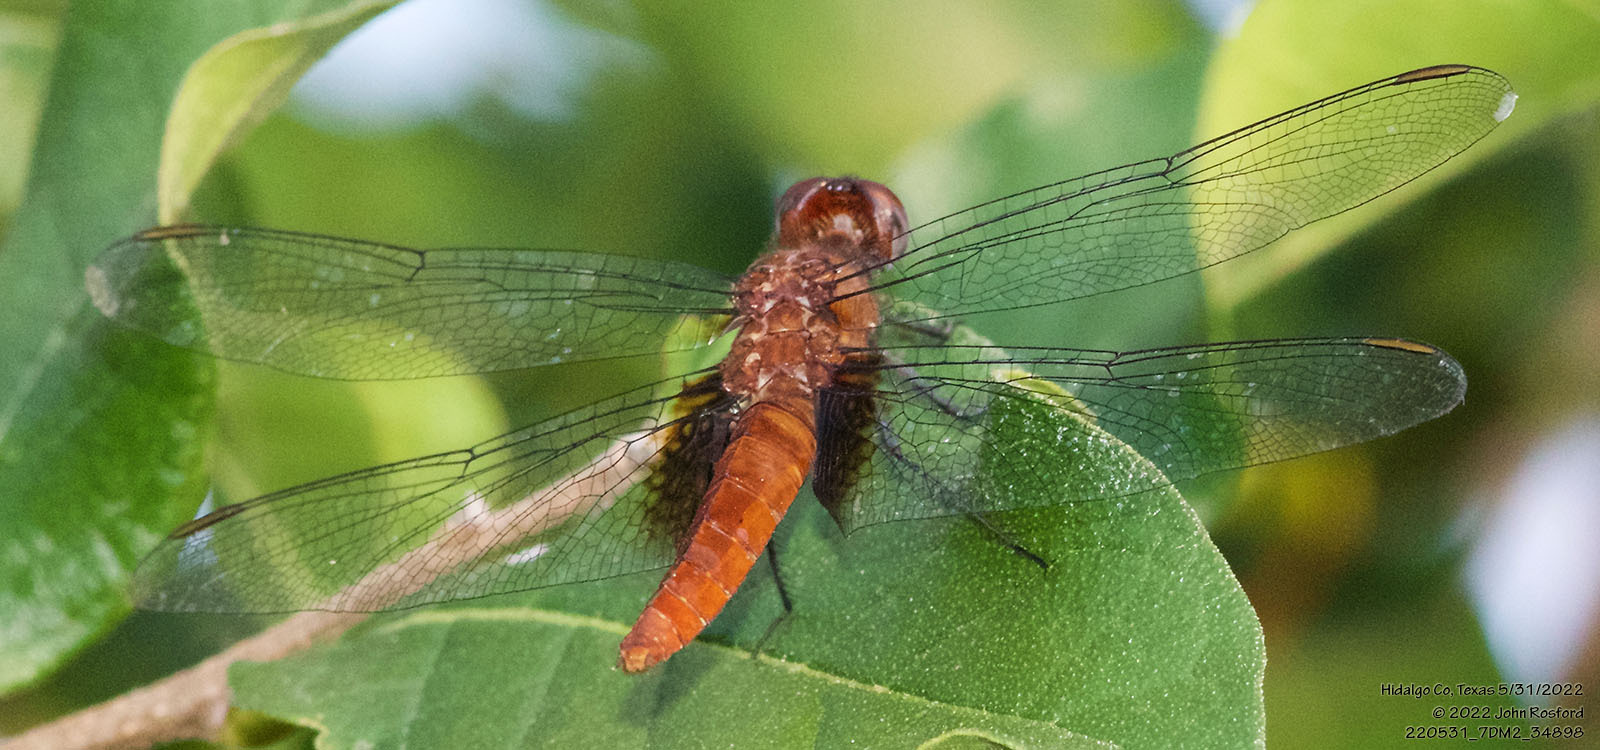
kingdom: Animalia
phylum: Arthropoda
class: Insecta
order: Odonata
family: Libellulidae
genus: Planiplax
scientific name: Planiplax sanguiniventris
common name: Mexican scarlet-tail
